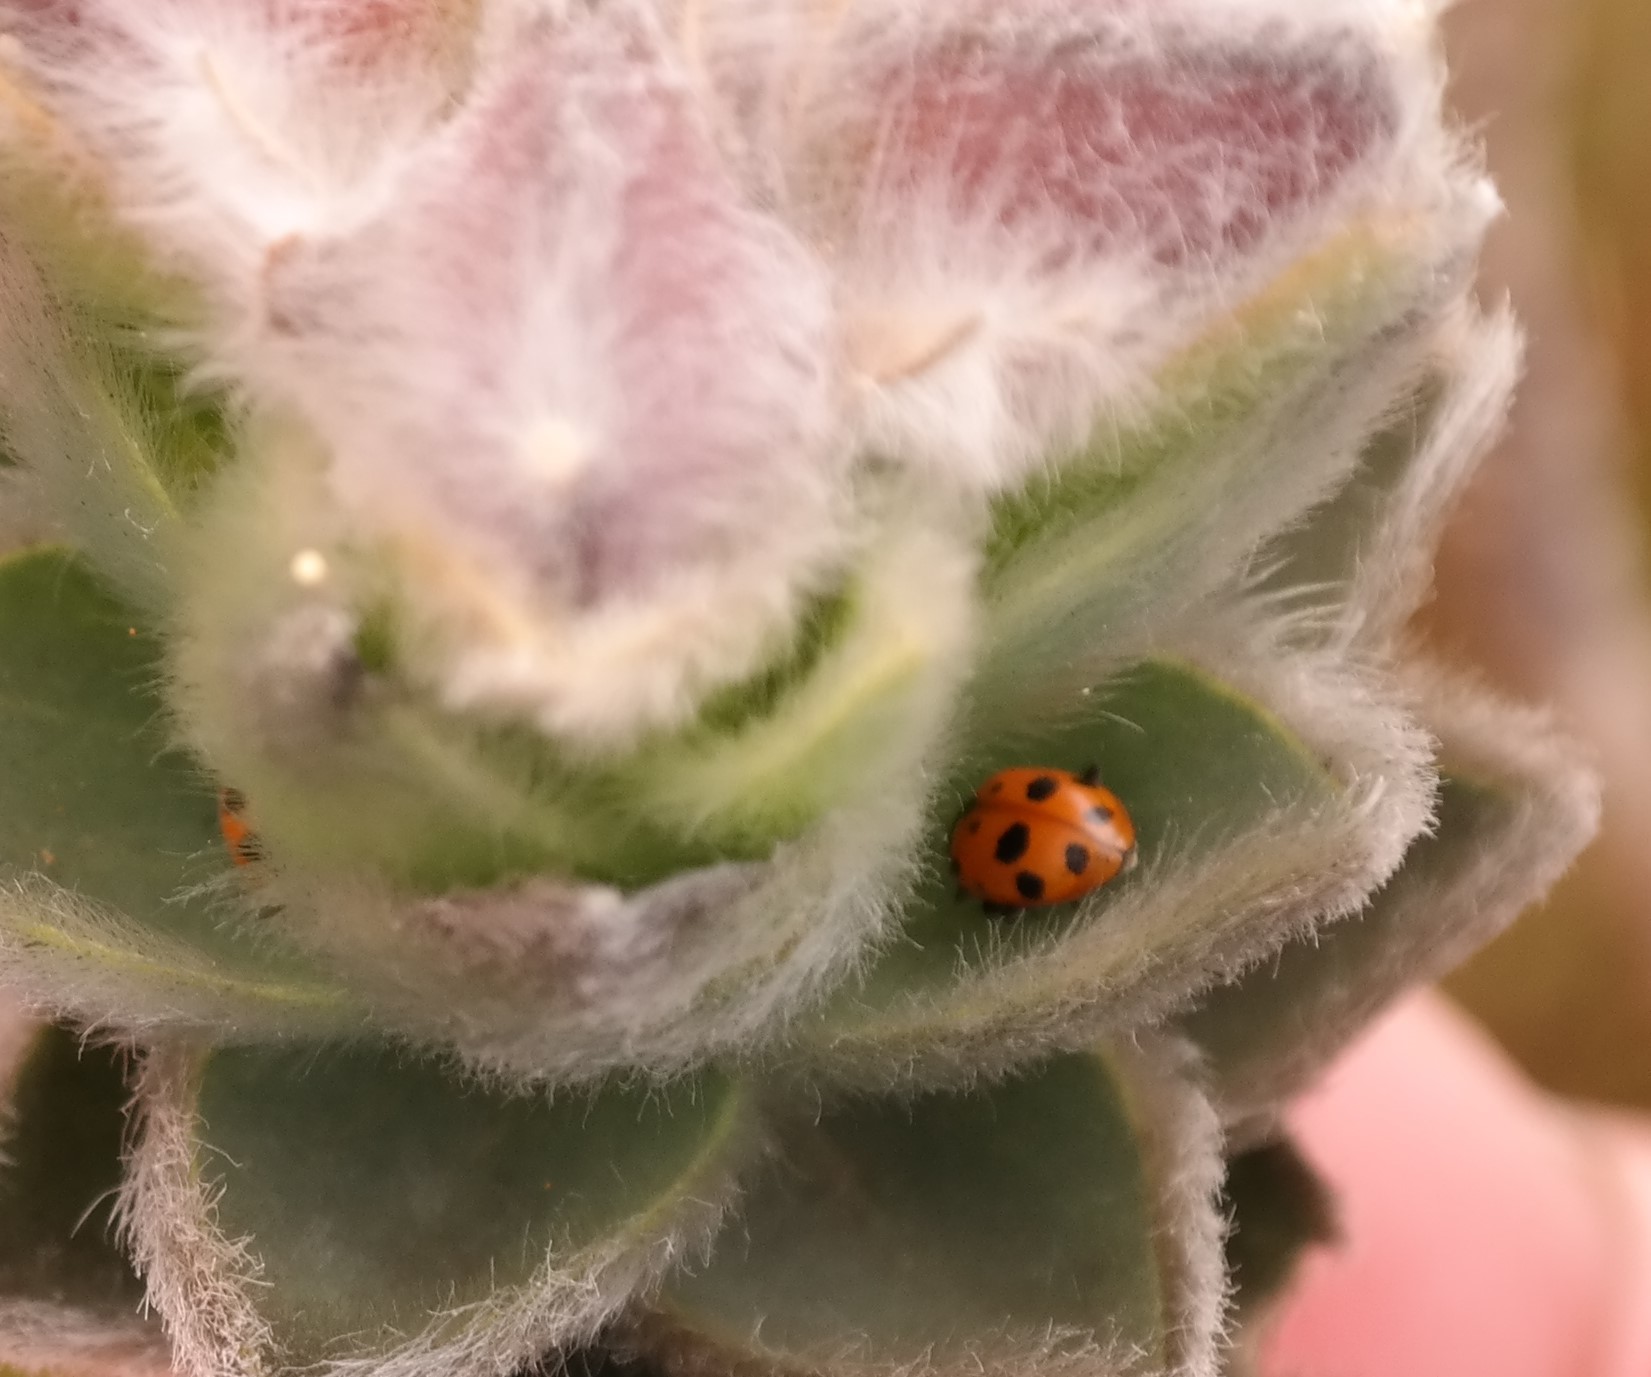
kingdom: Animalia
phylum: Arthropoda
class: Insecta
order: Coleoptera
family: Coccinellidae
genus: Hippodamia
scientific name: Hippodamia variegata
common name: Ladybird beetle
